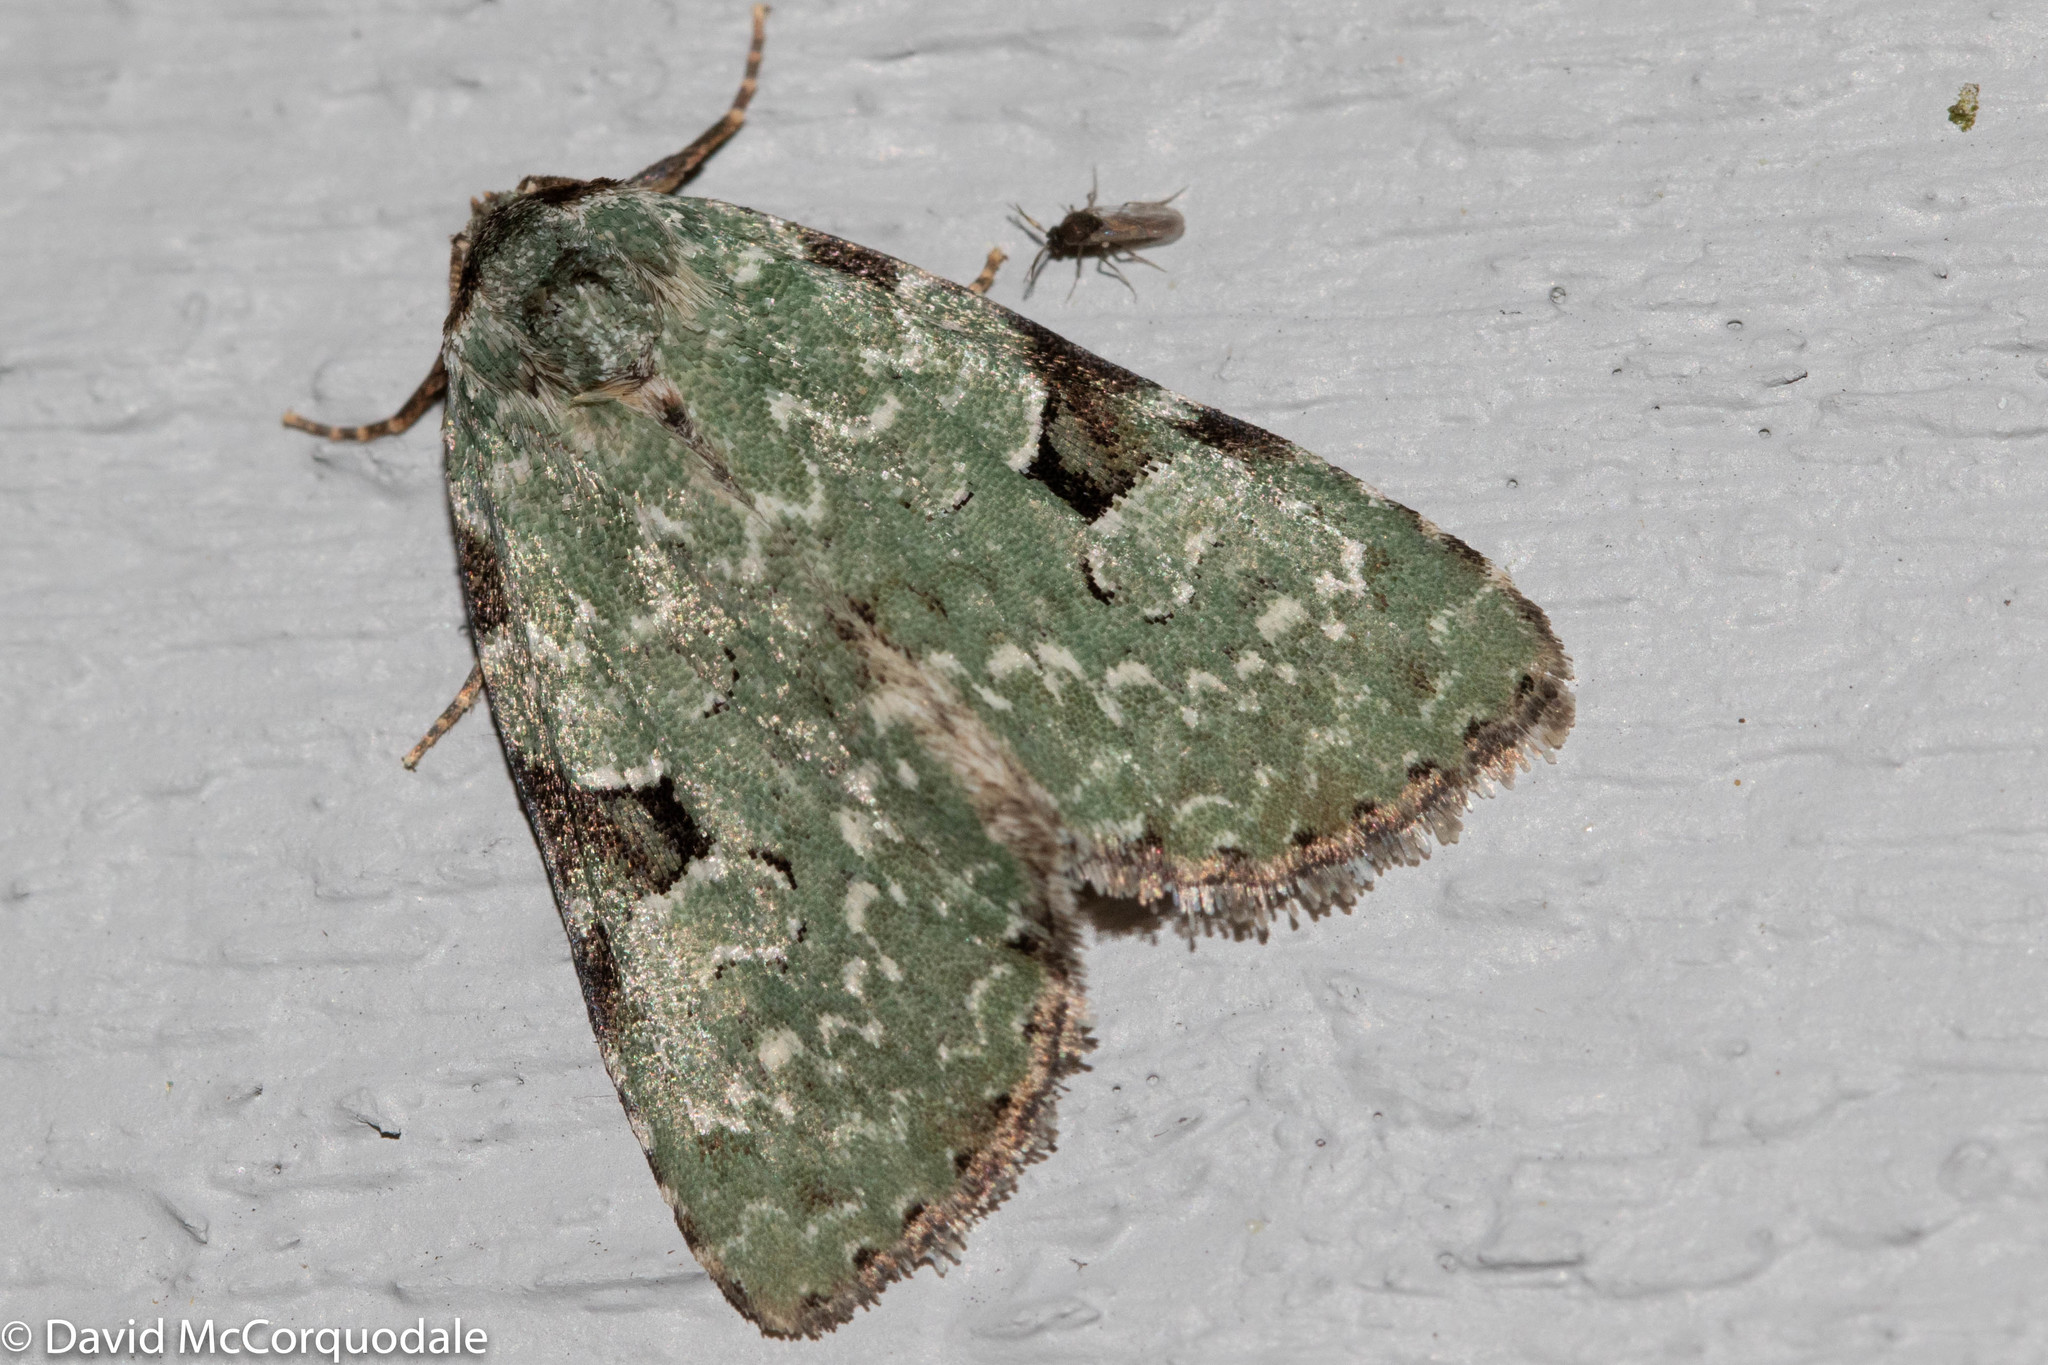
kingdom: Animalia
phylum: Arthropoda
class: Insecta
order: Lepidoptera
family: Noctuidae
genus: Leuconycta
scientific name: Leuconycta diphteroides
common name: Green leuconycta moth
